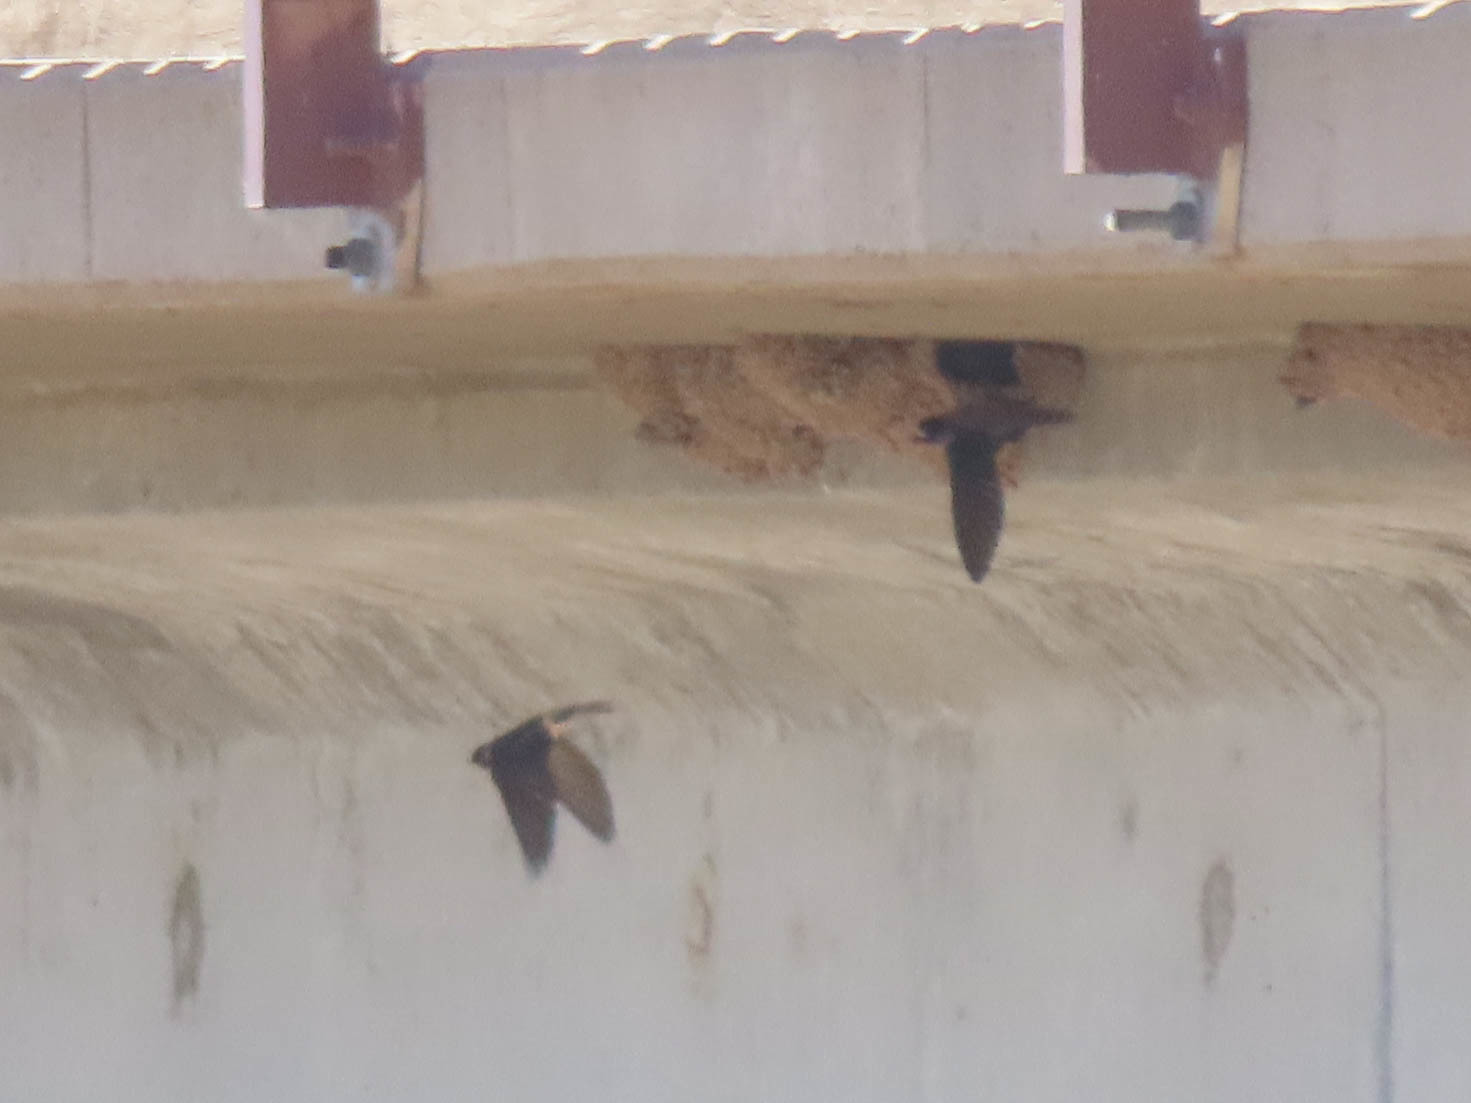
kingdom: Animalia
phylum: Chordata
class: Aves
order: Passeriformes
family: Hirundinidae
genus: Petrochelidon
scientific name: Petrochelidon pyrrhonota
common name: American cliff swallow
